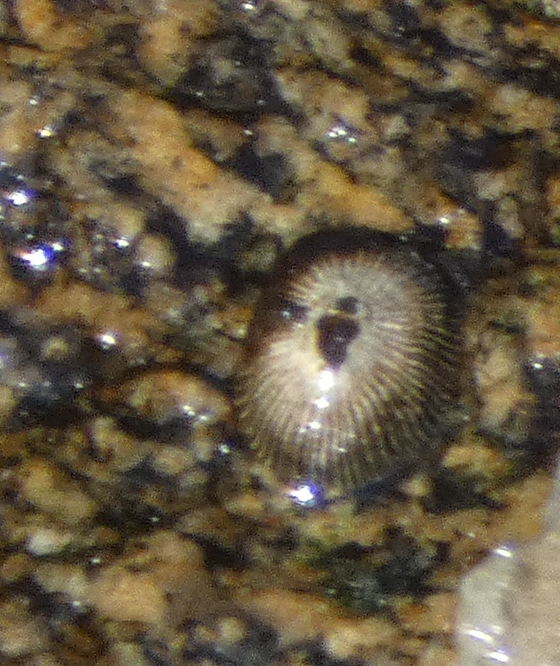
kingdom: Animalia
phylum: Mollusca
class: Gastropoda
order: Siphonariida
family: Siphonariidae
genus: Siphonaria
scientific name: Siphonaria naufragum
